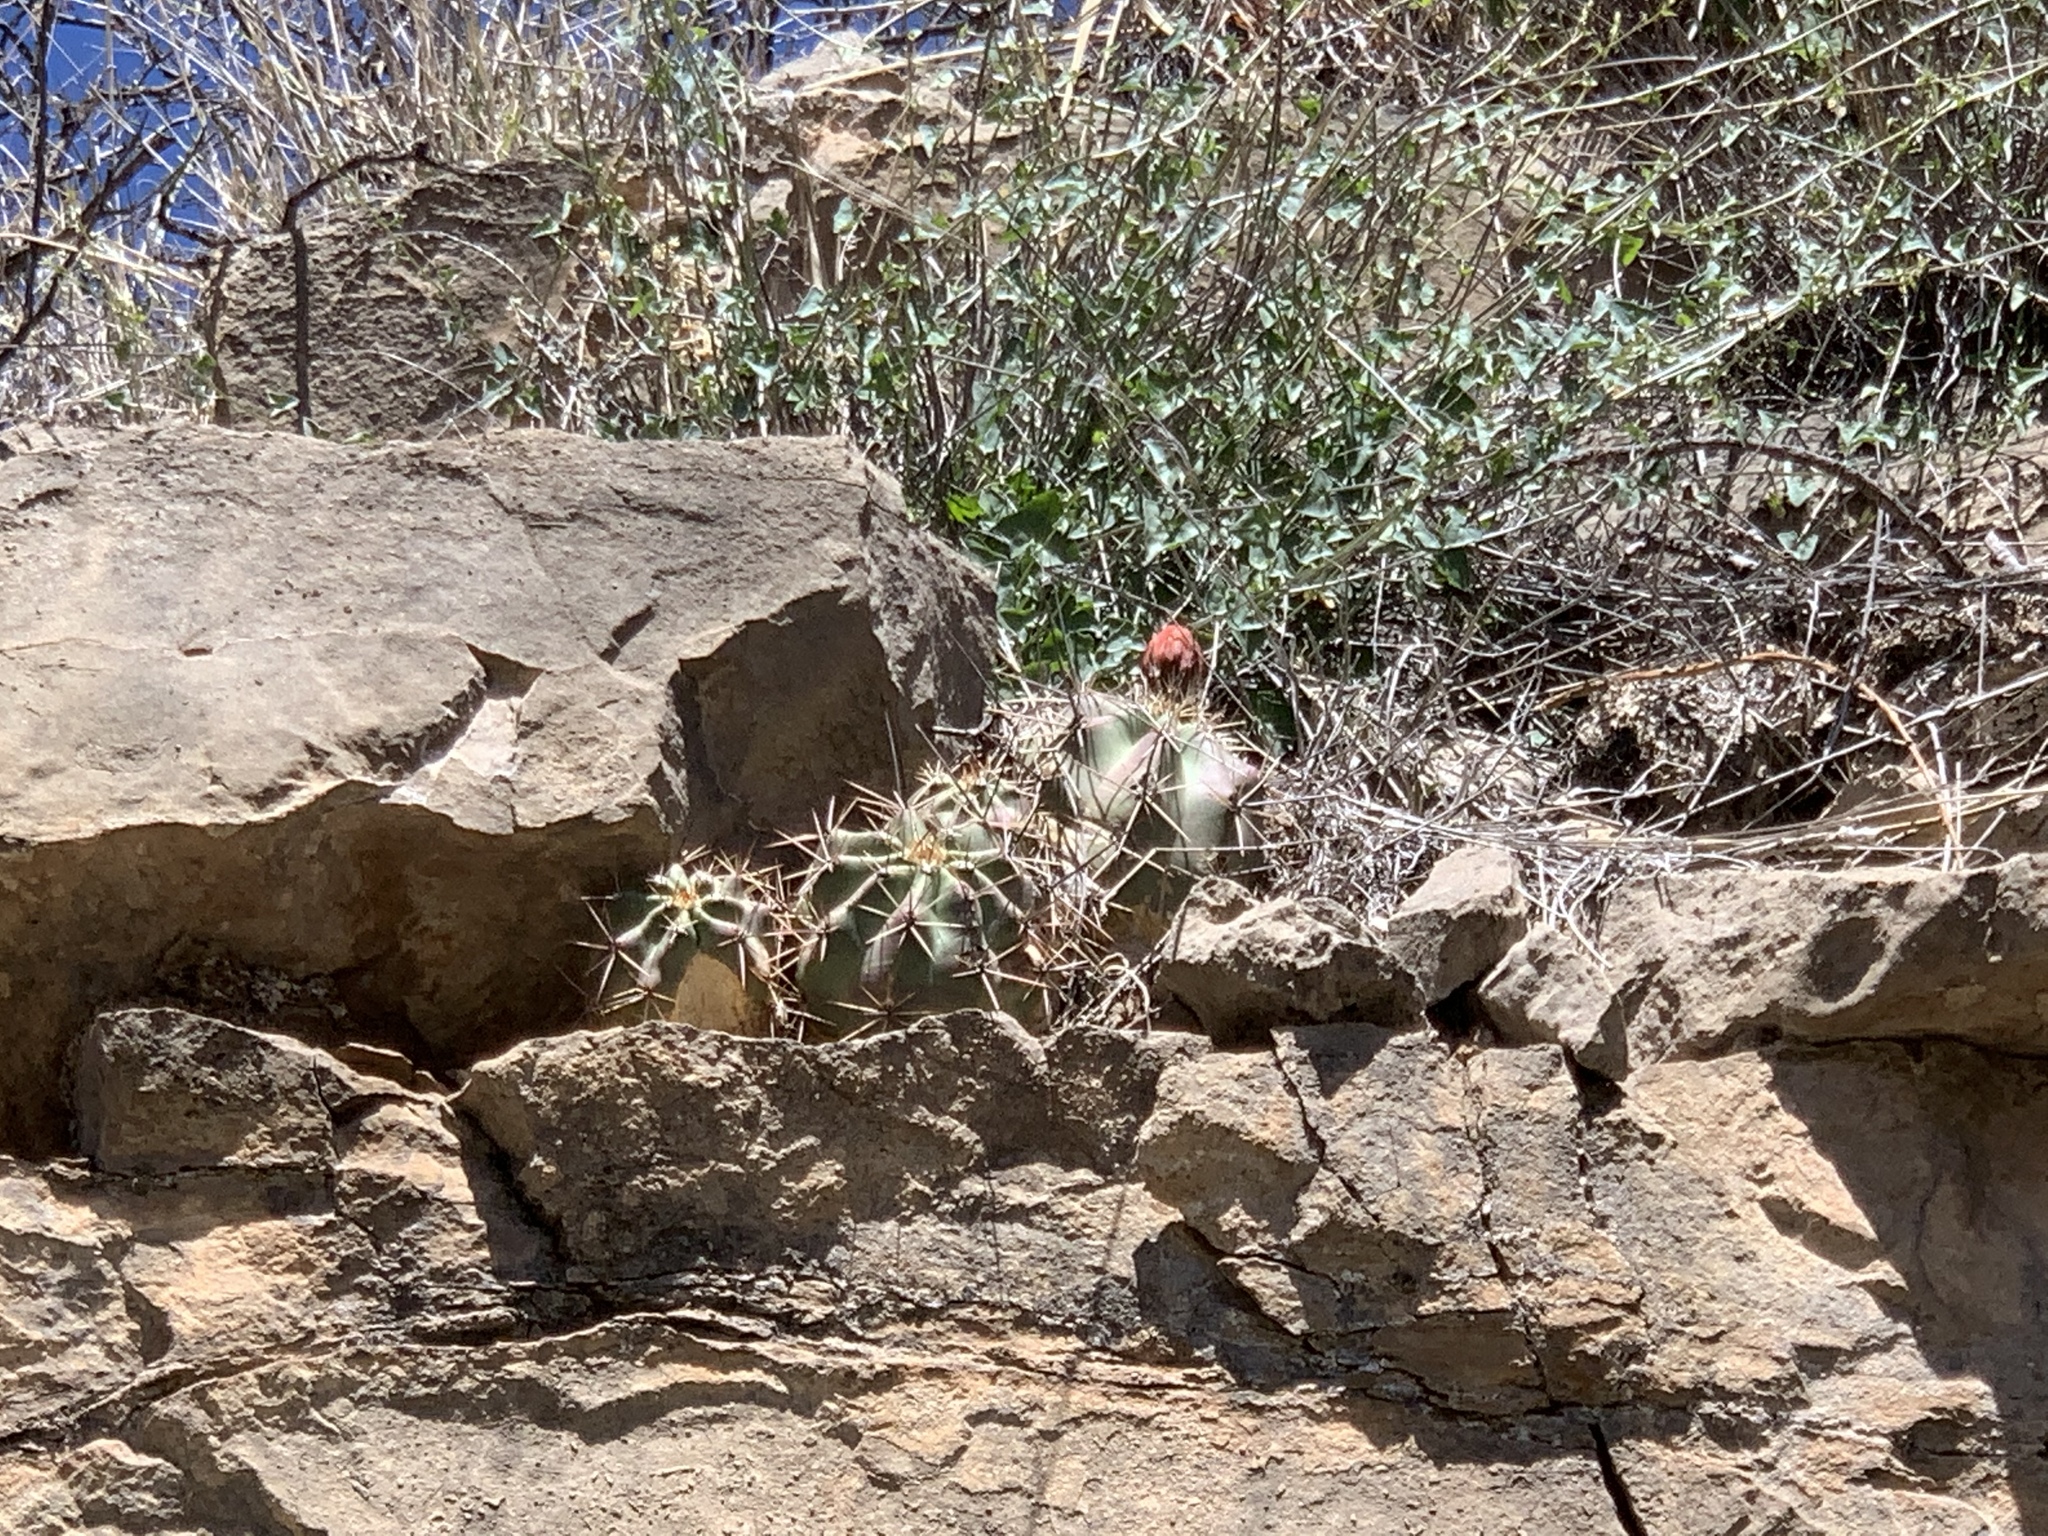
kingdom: Plantae
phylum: Tracheophyta
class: Magnoliopsida
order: Caryophyllales
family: Cactaceae
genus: Echinocereus
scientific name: Echinocereus coccineus
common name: Scarlet hedgehog cactus
